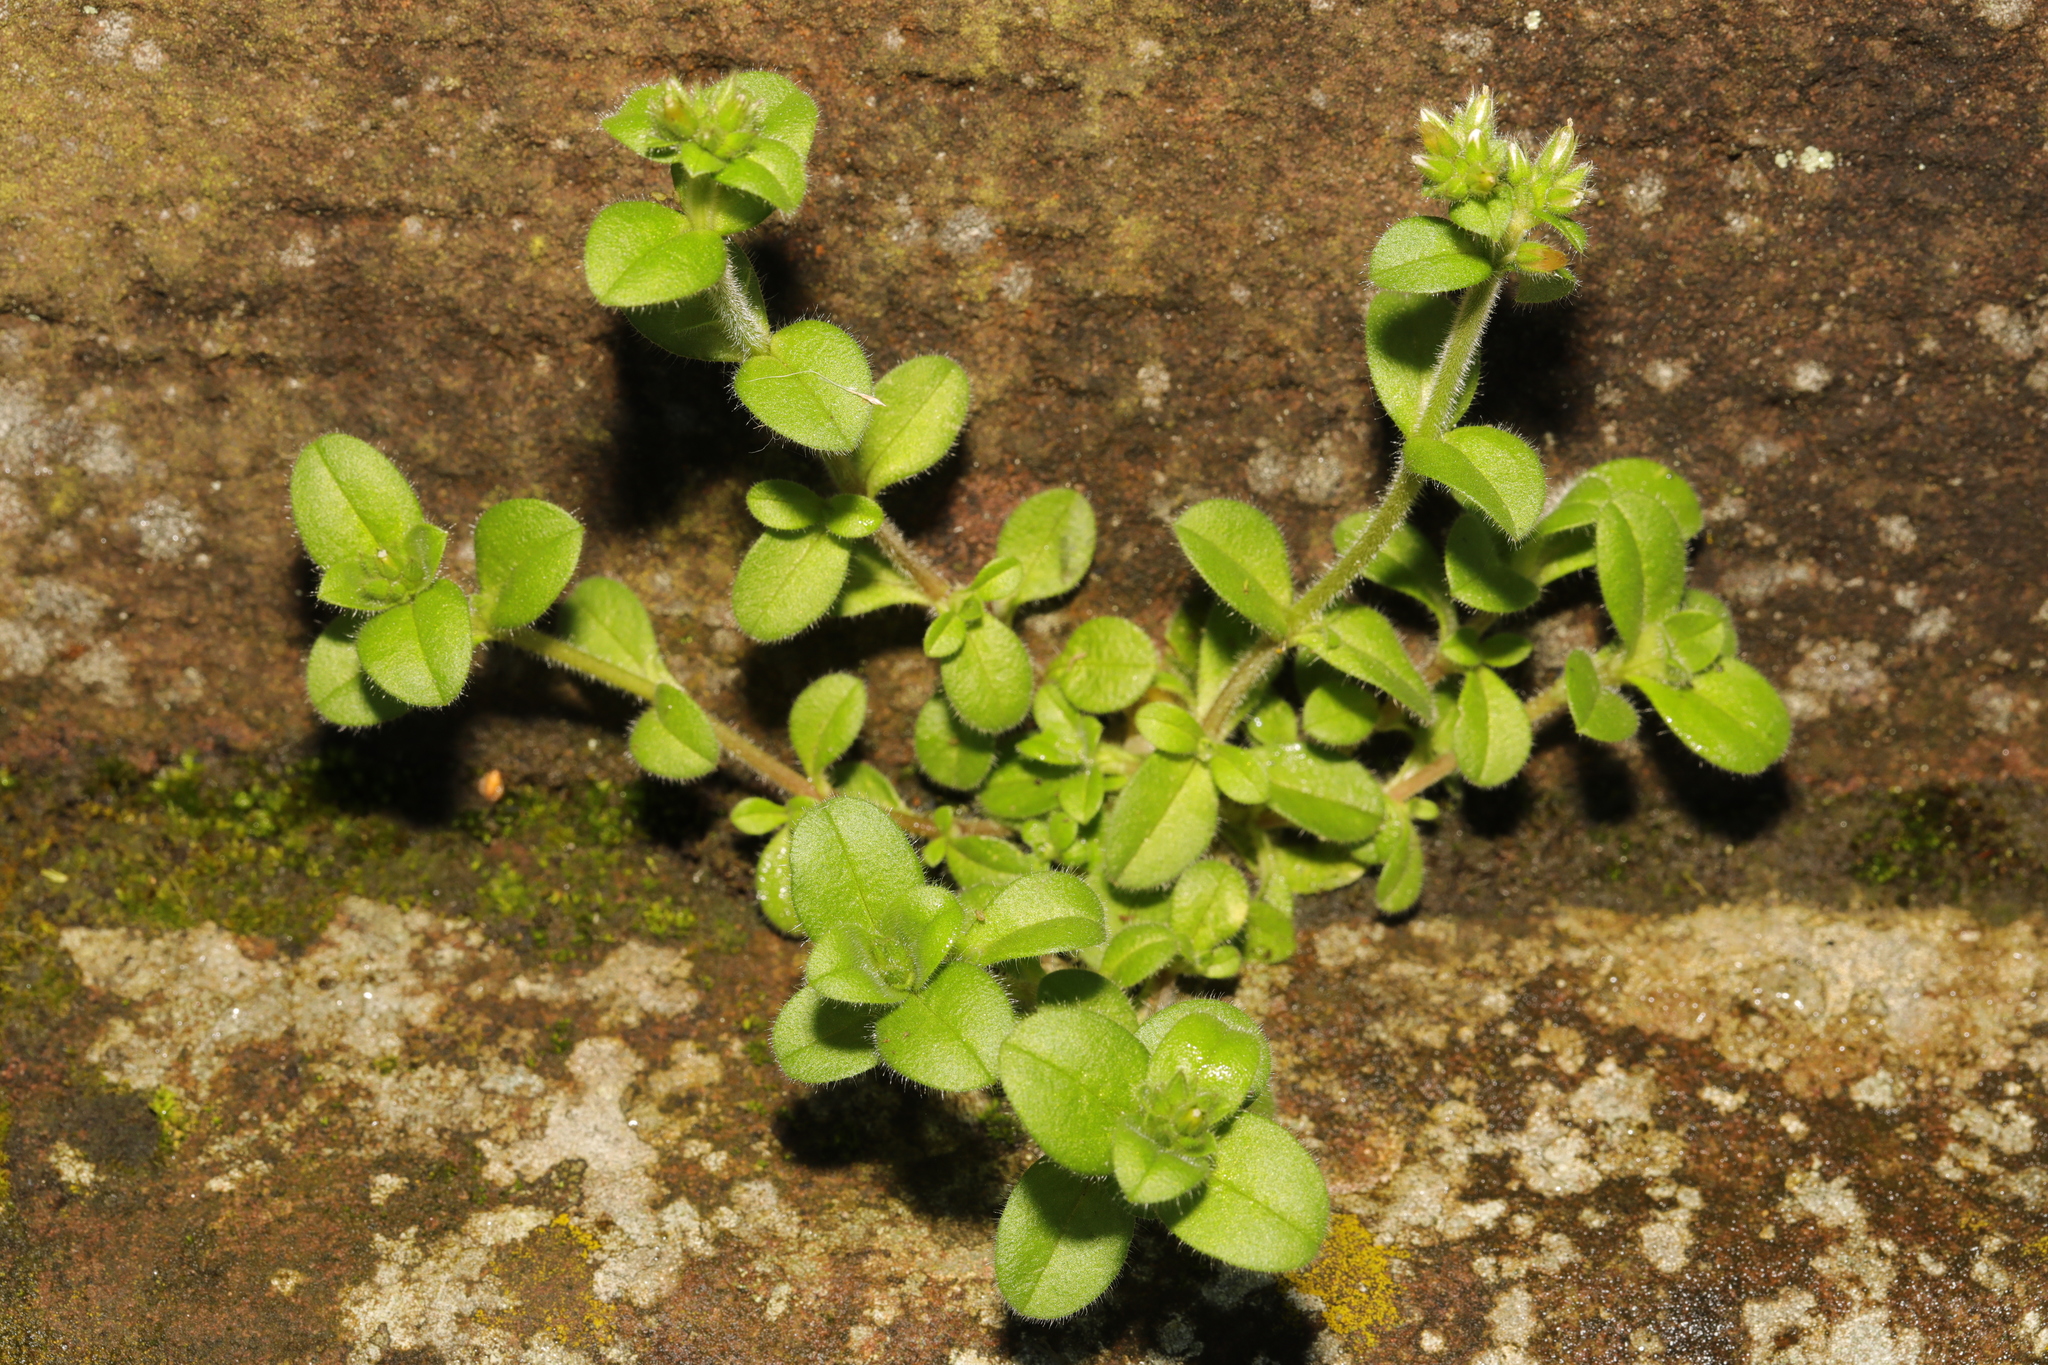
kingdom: Plantae
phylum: Tracheophyta
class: Magnoliopsida
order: Caryophyllales
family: Caryophyllaceae
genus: Cerastium
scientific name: Cerastium glomeratum
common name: Sticky chickweed
